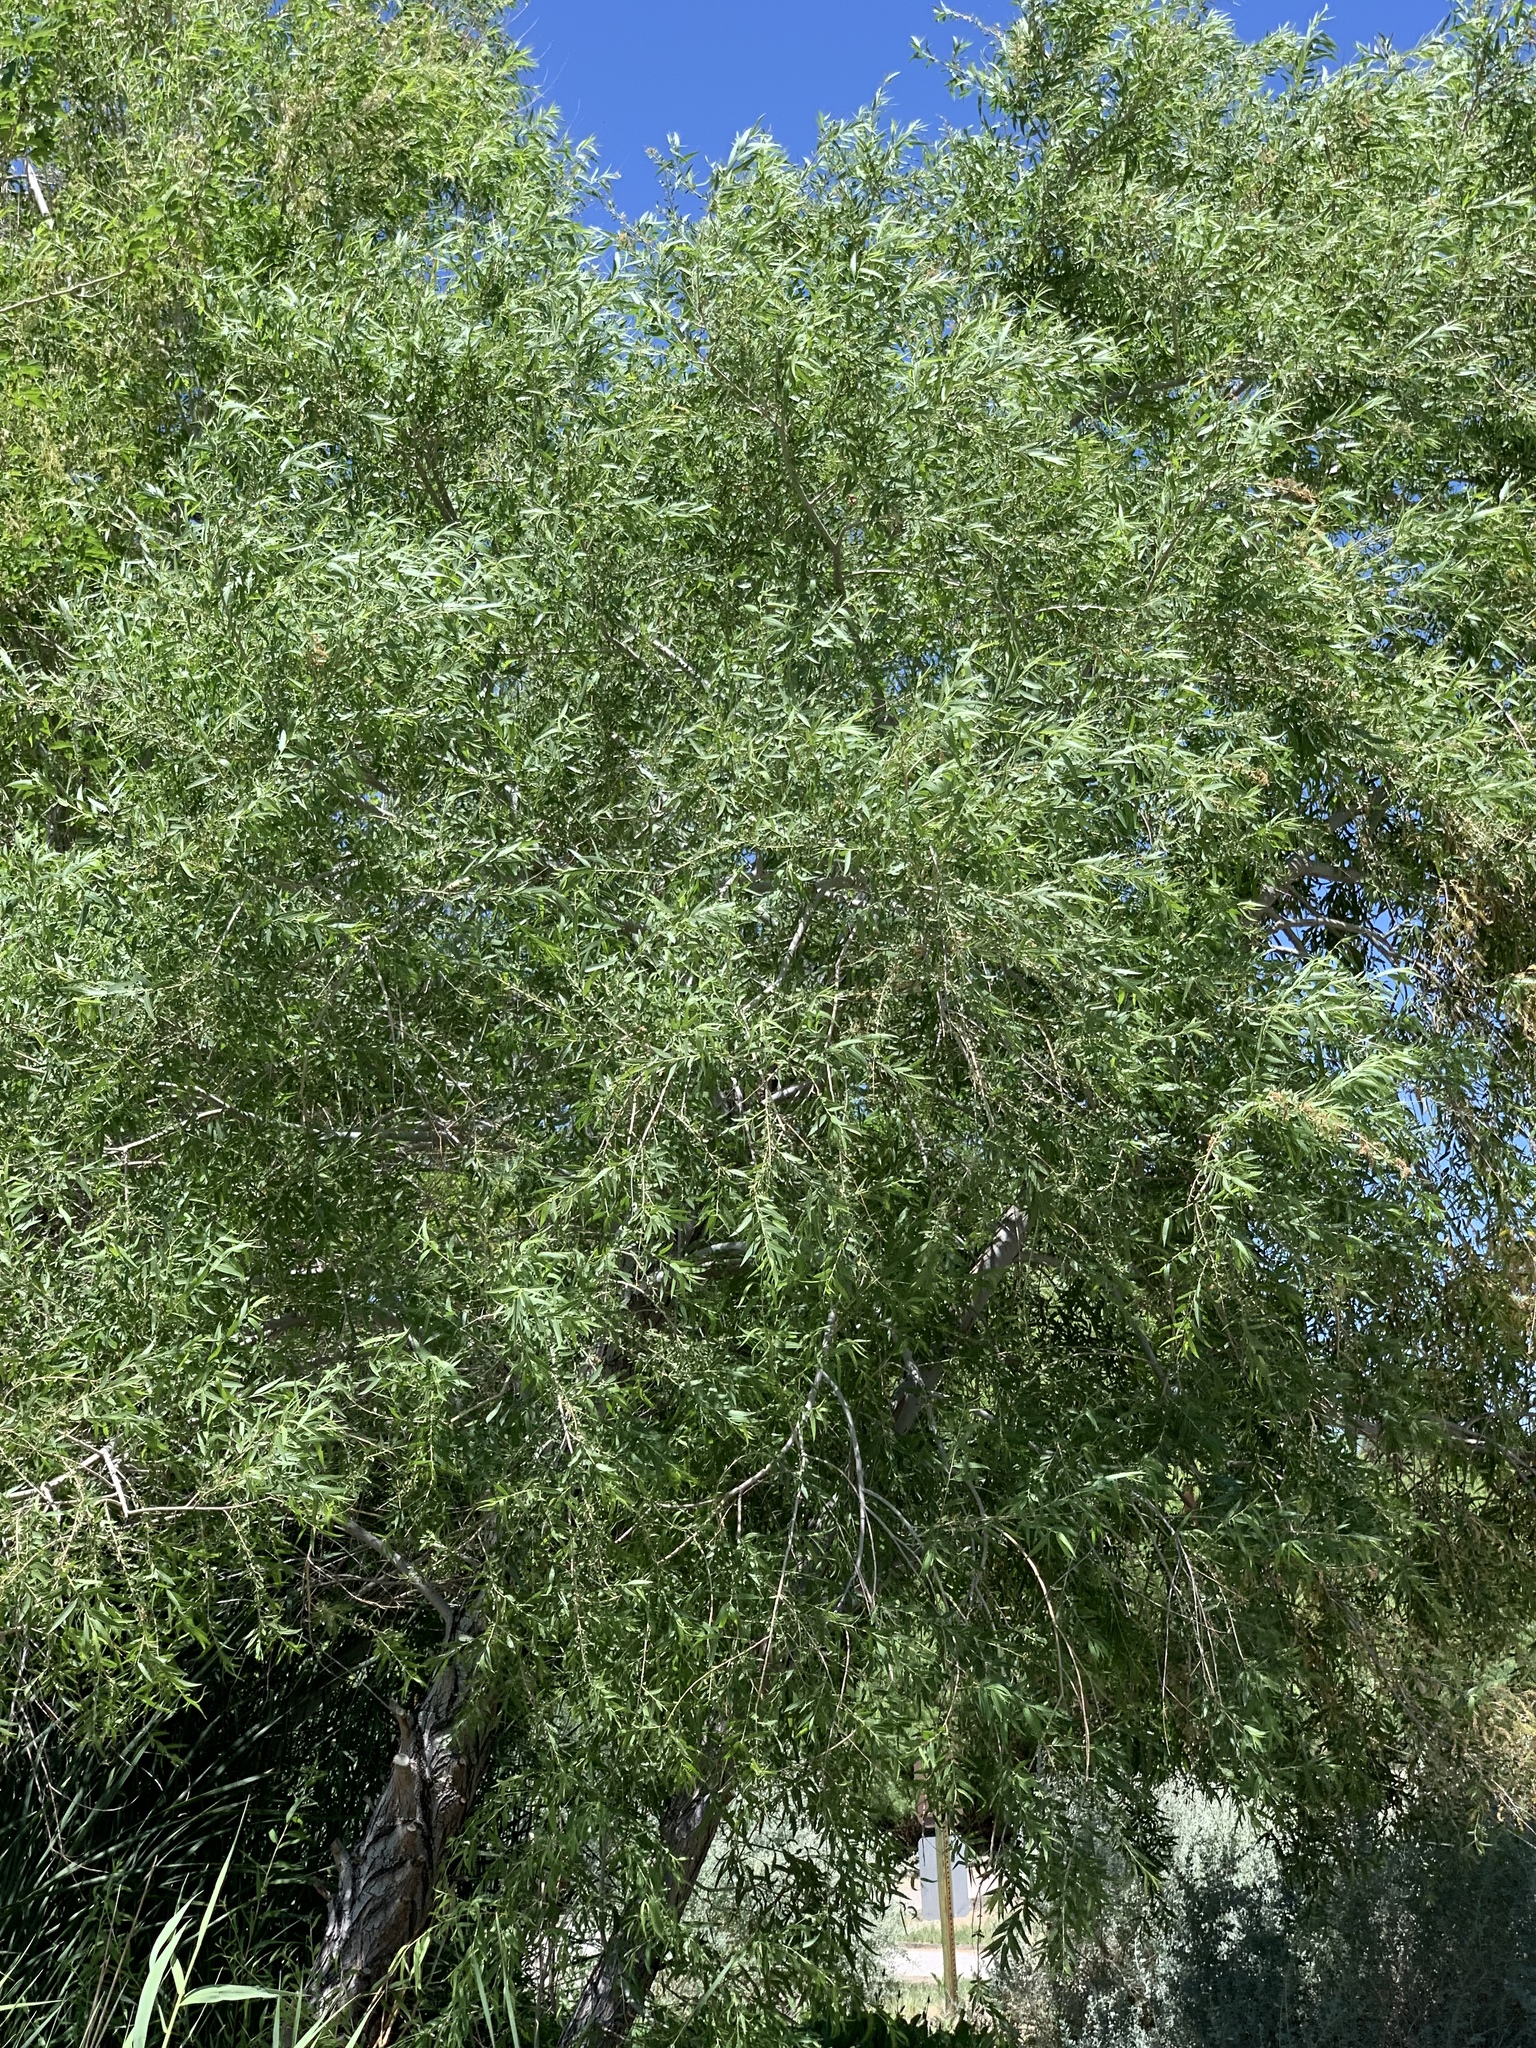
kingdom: Plantae
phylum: Tracheophyta
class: Magnoliopsida
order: Malpighiales
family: Salicaceae
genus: Salix
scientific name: Salix gooddingii
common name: Goodding's willow
